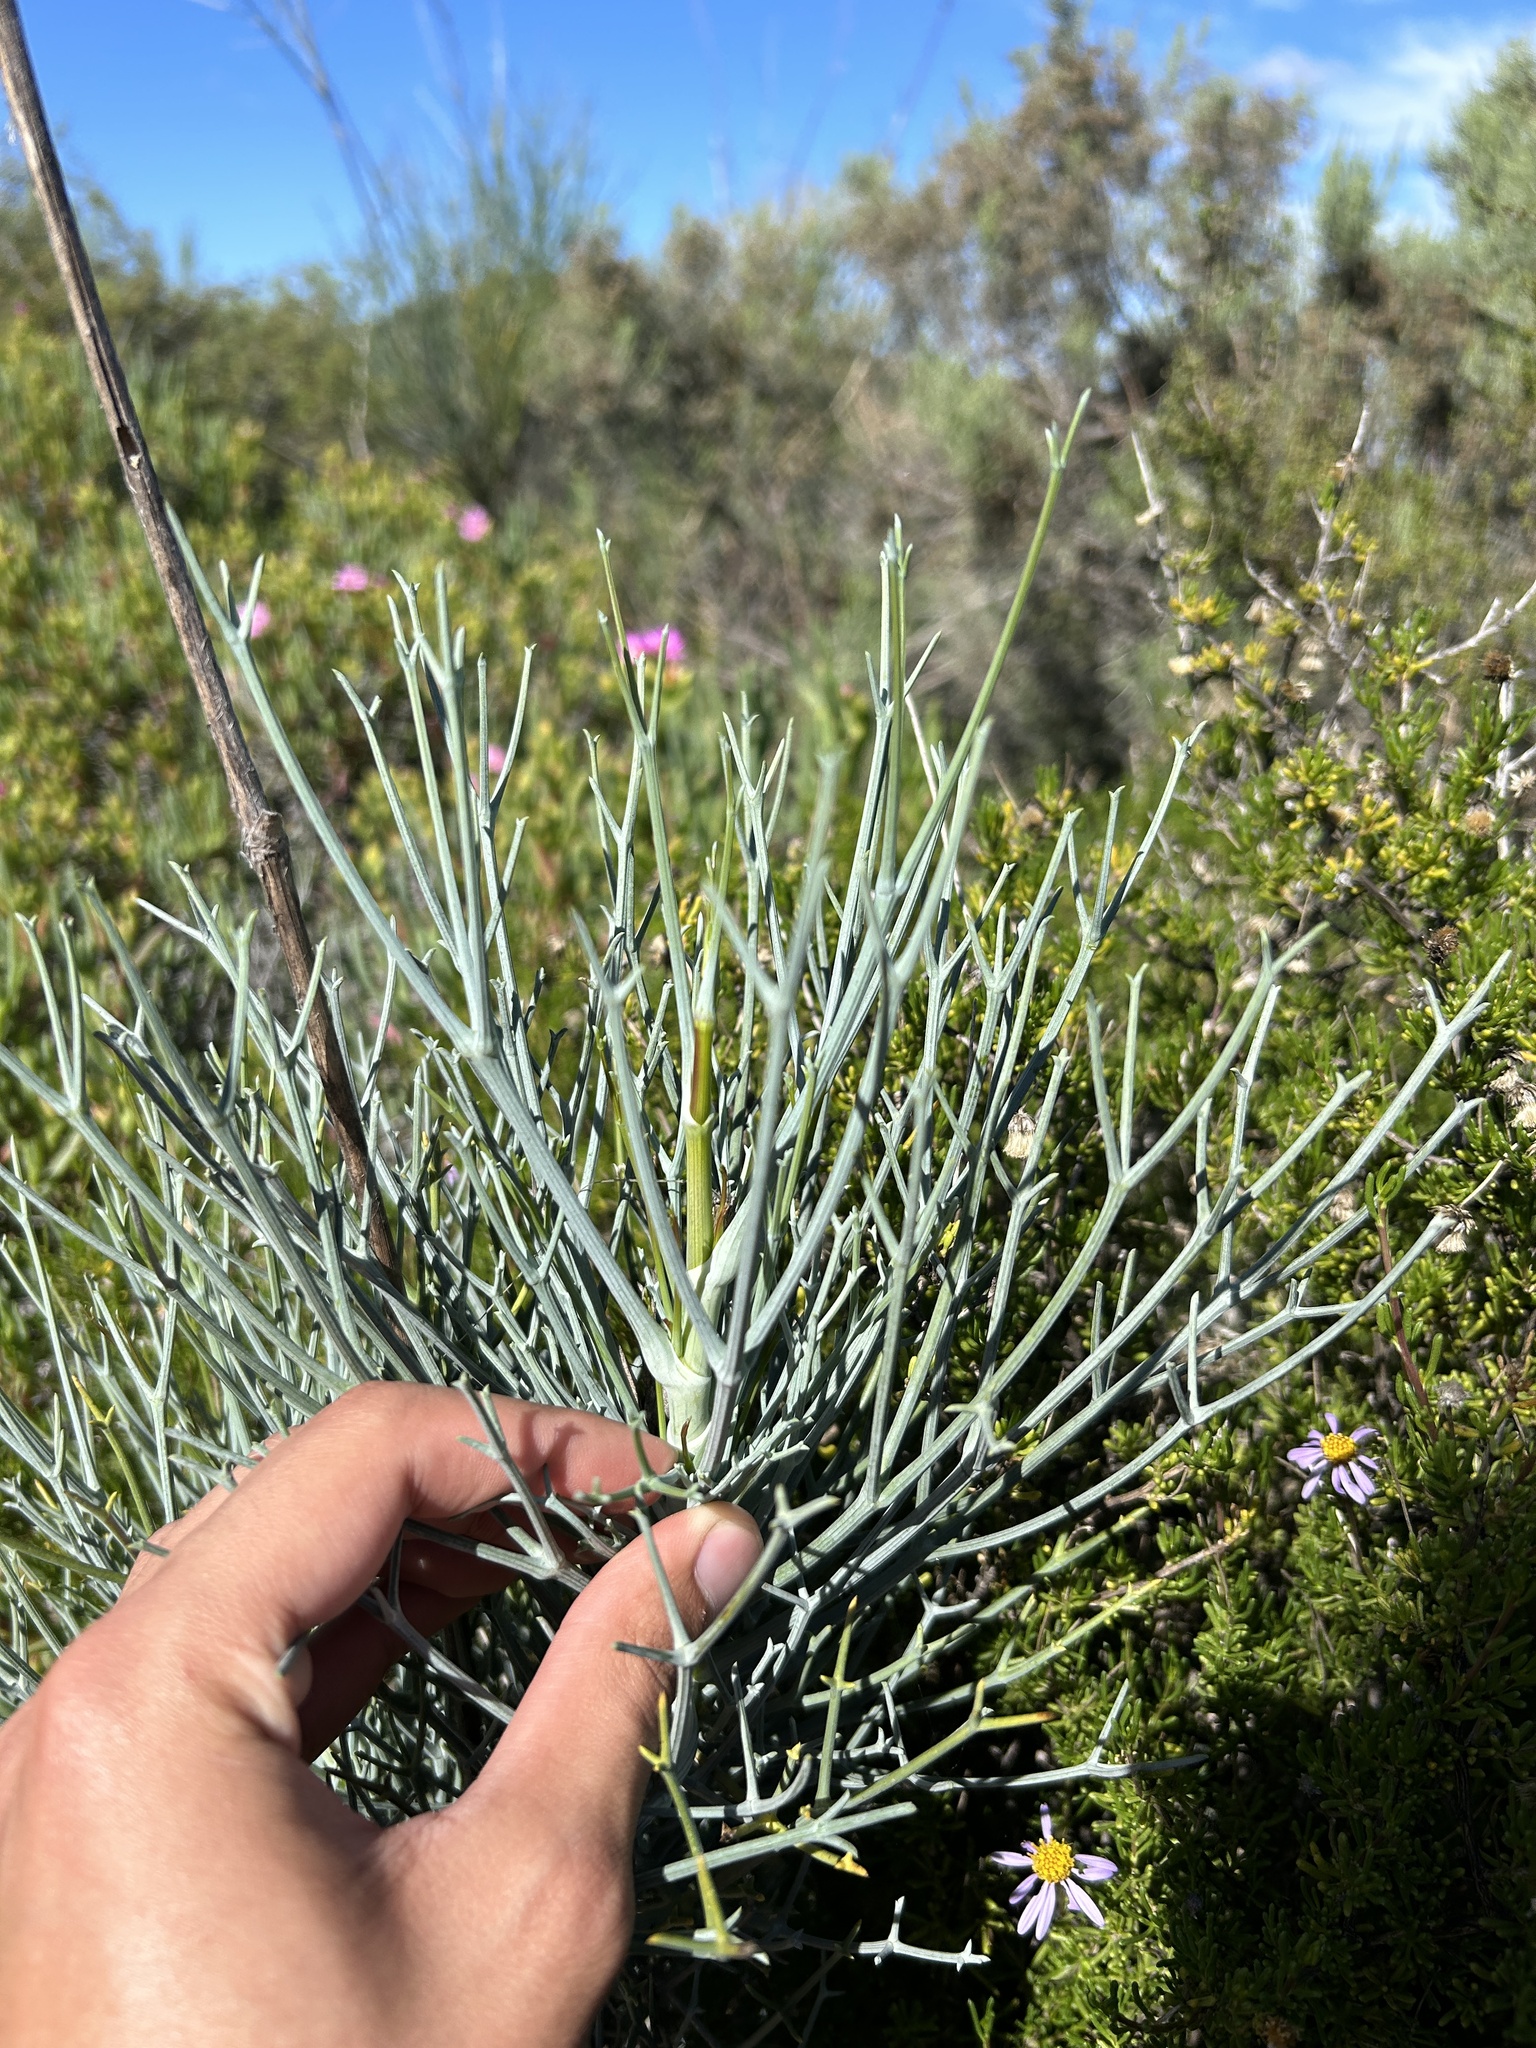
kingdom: Plantae
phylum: Tracheophyta
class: Magnoliopsida
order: Apiales
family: Apiaceae
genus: Anginon
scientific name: Anginon swellendamense
